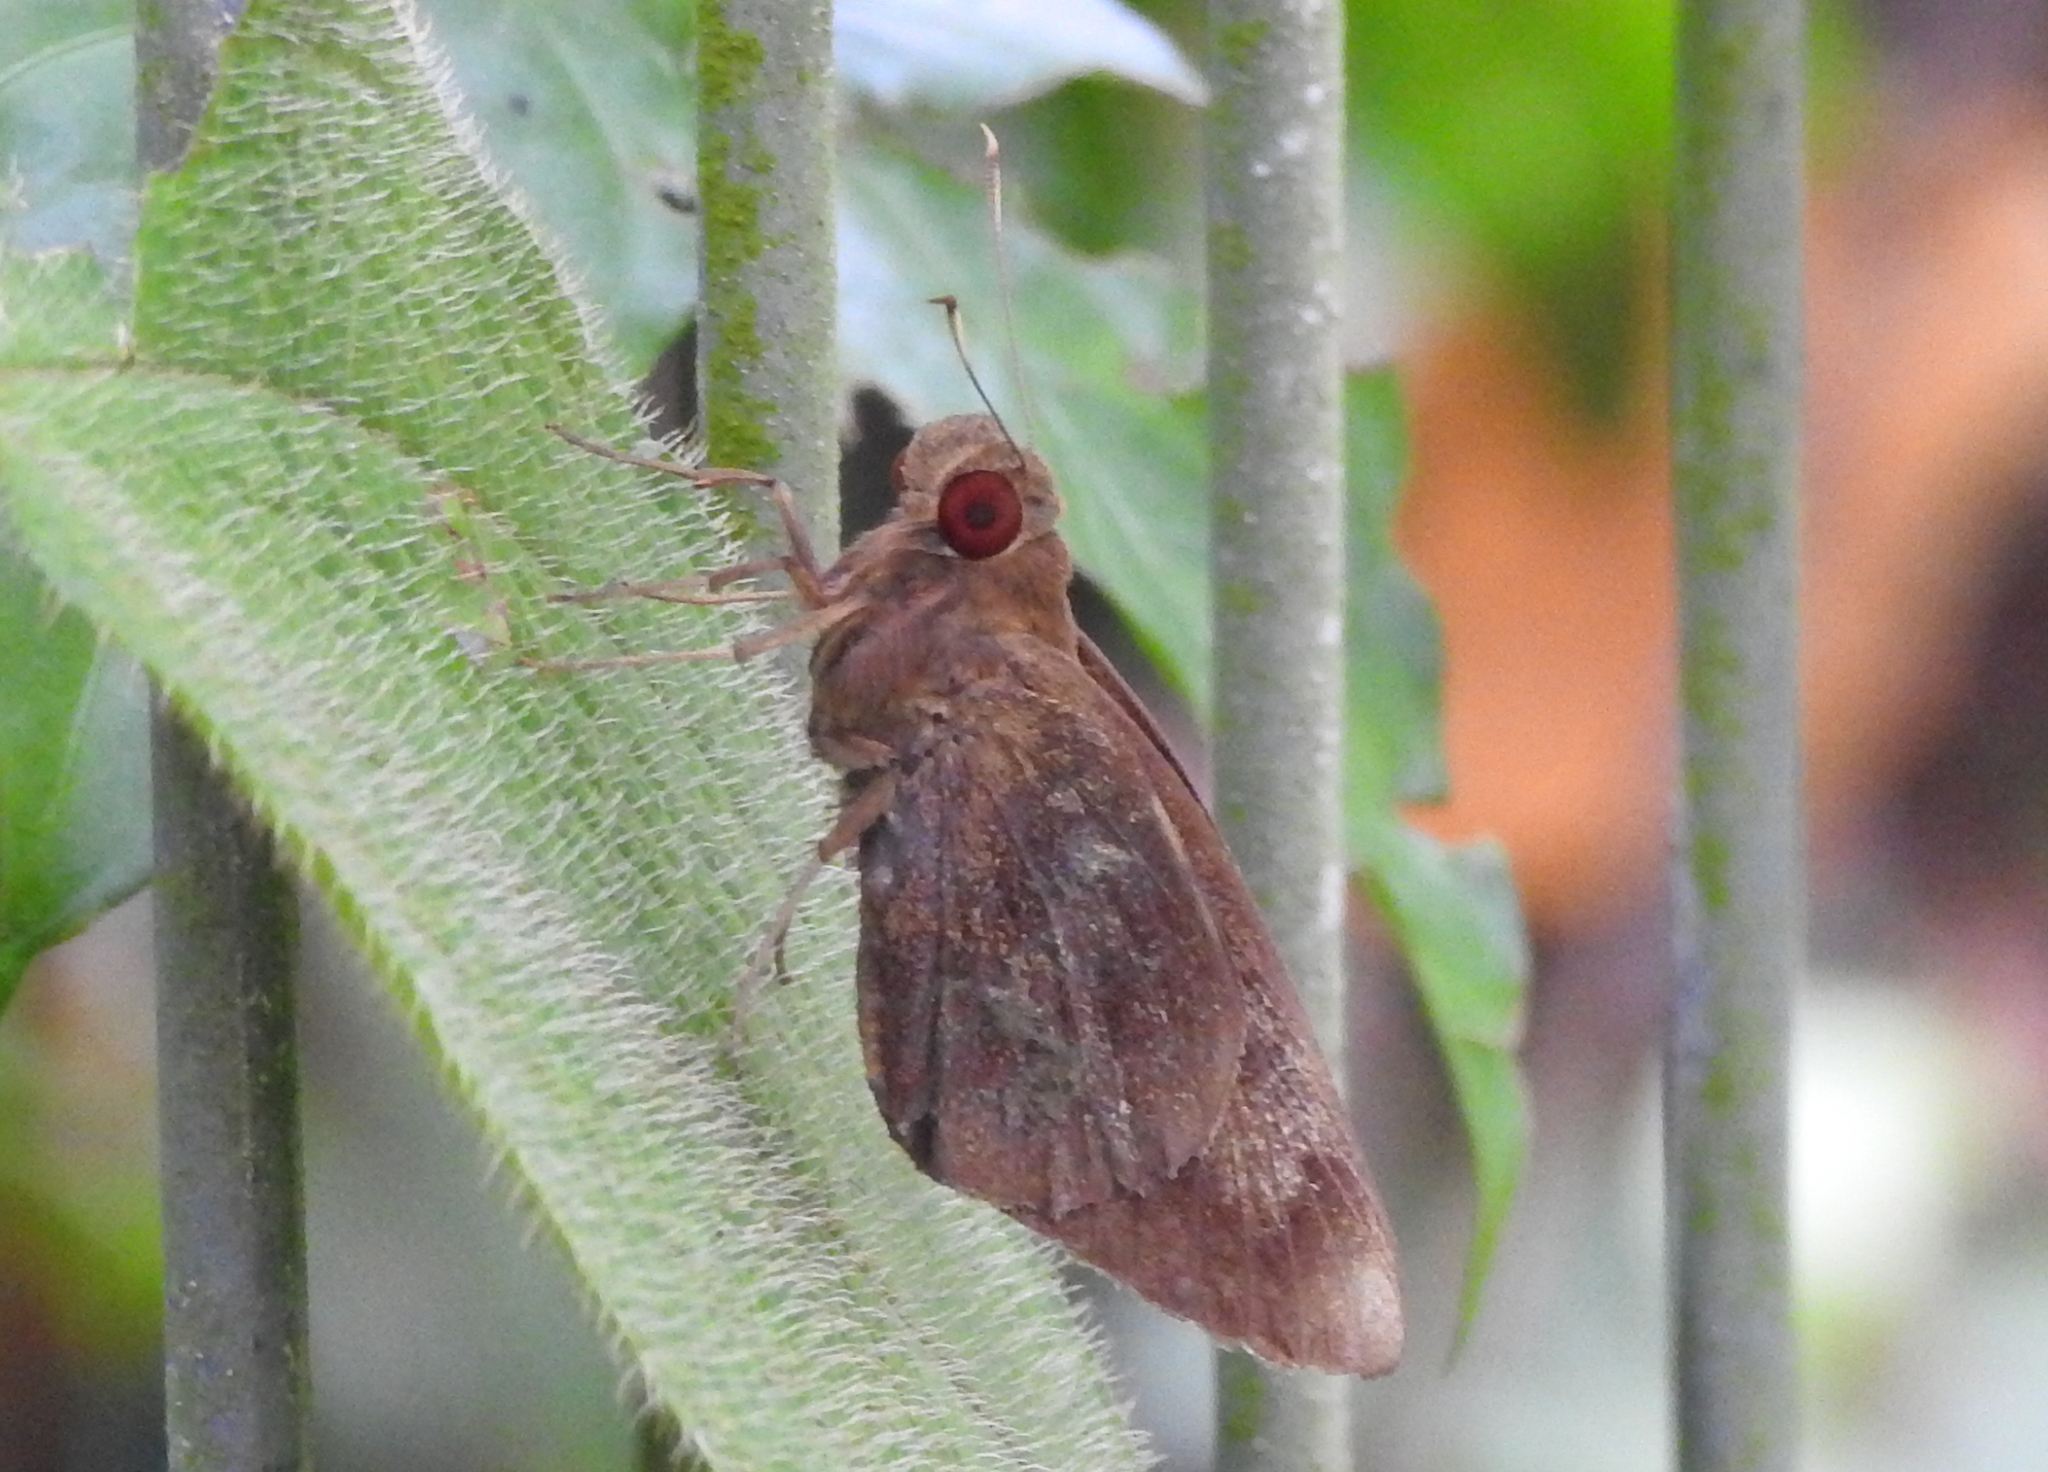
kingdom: Animalia
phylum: Arthropoda
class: Insecta
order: Lepidoptera
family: Hesperiidae
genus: Erionota
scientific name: Erionota acroleucus
